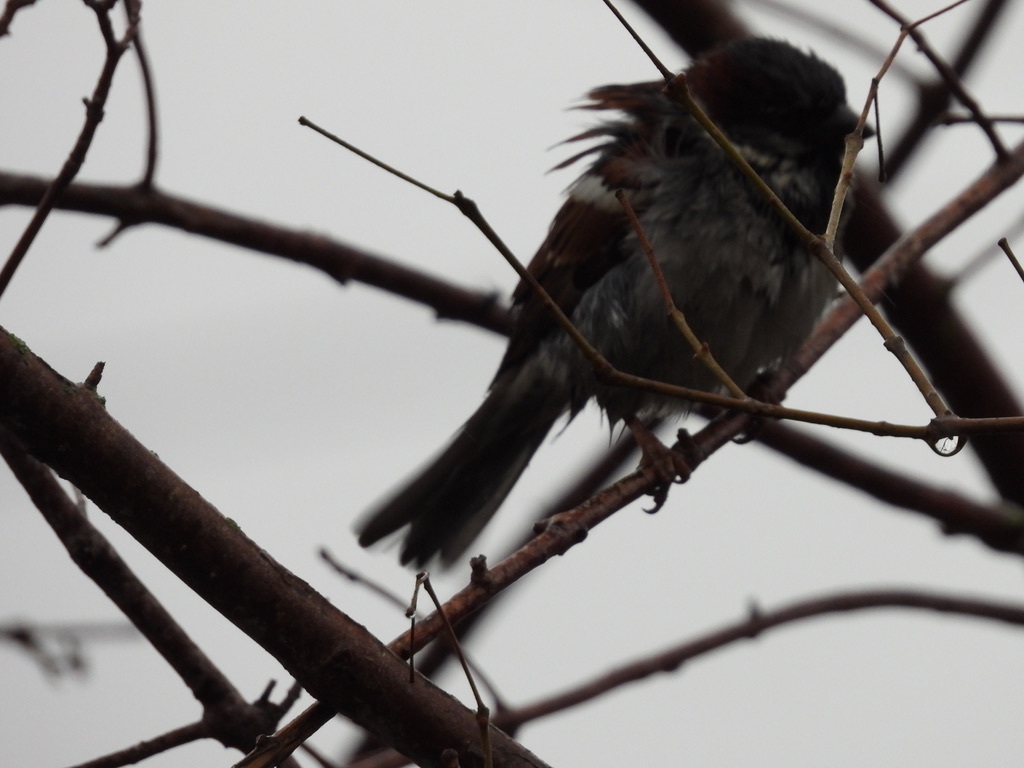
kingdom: Animalia
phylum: Chordata
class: Aves
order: Passeriformes
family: Passeridae
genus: Passer
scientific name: Passer domesticus
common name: House sparrow
